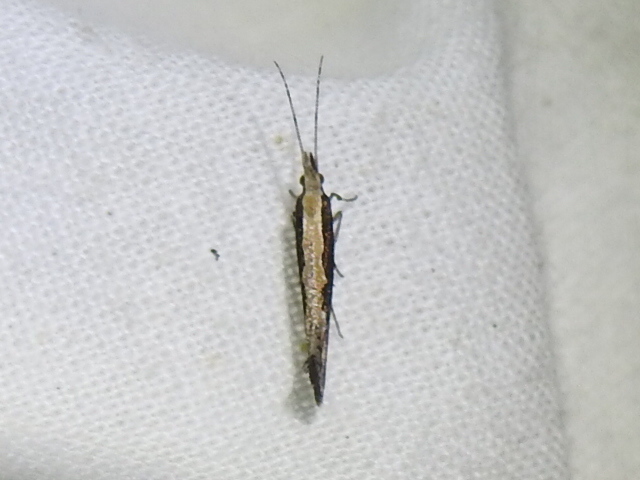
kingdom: Animalia
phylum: Arthropoda
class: Insecta
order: Lepidoptera
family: Plutellidae
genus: Plutella
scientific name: Plutella xylostella
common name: Diamond-back moth
